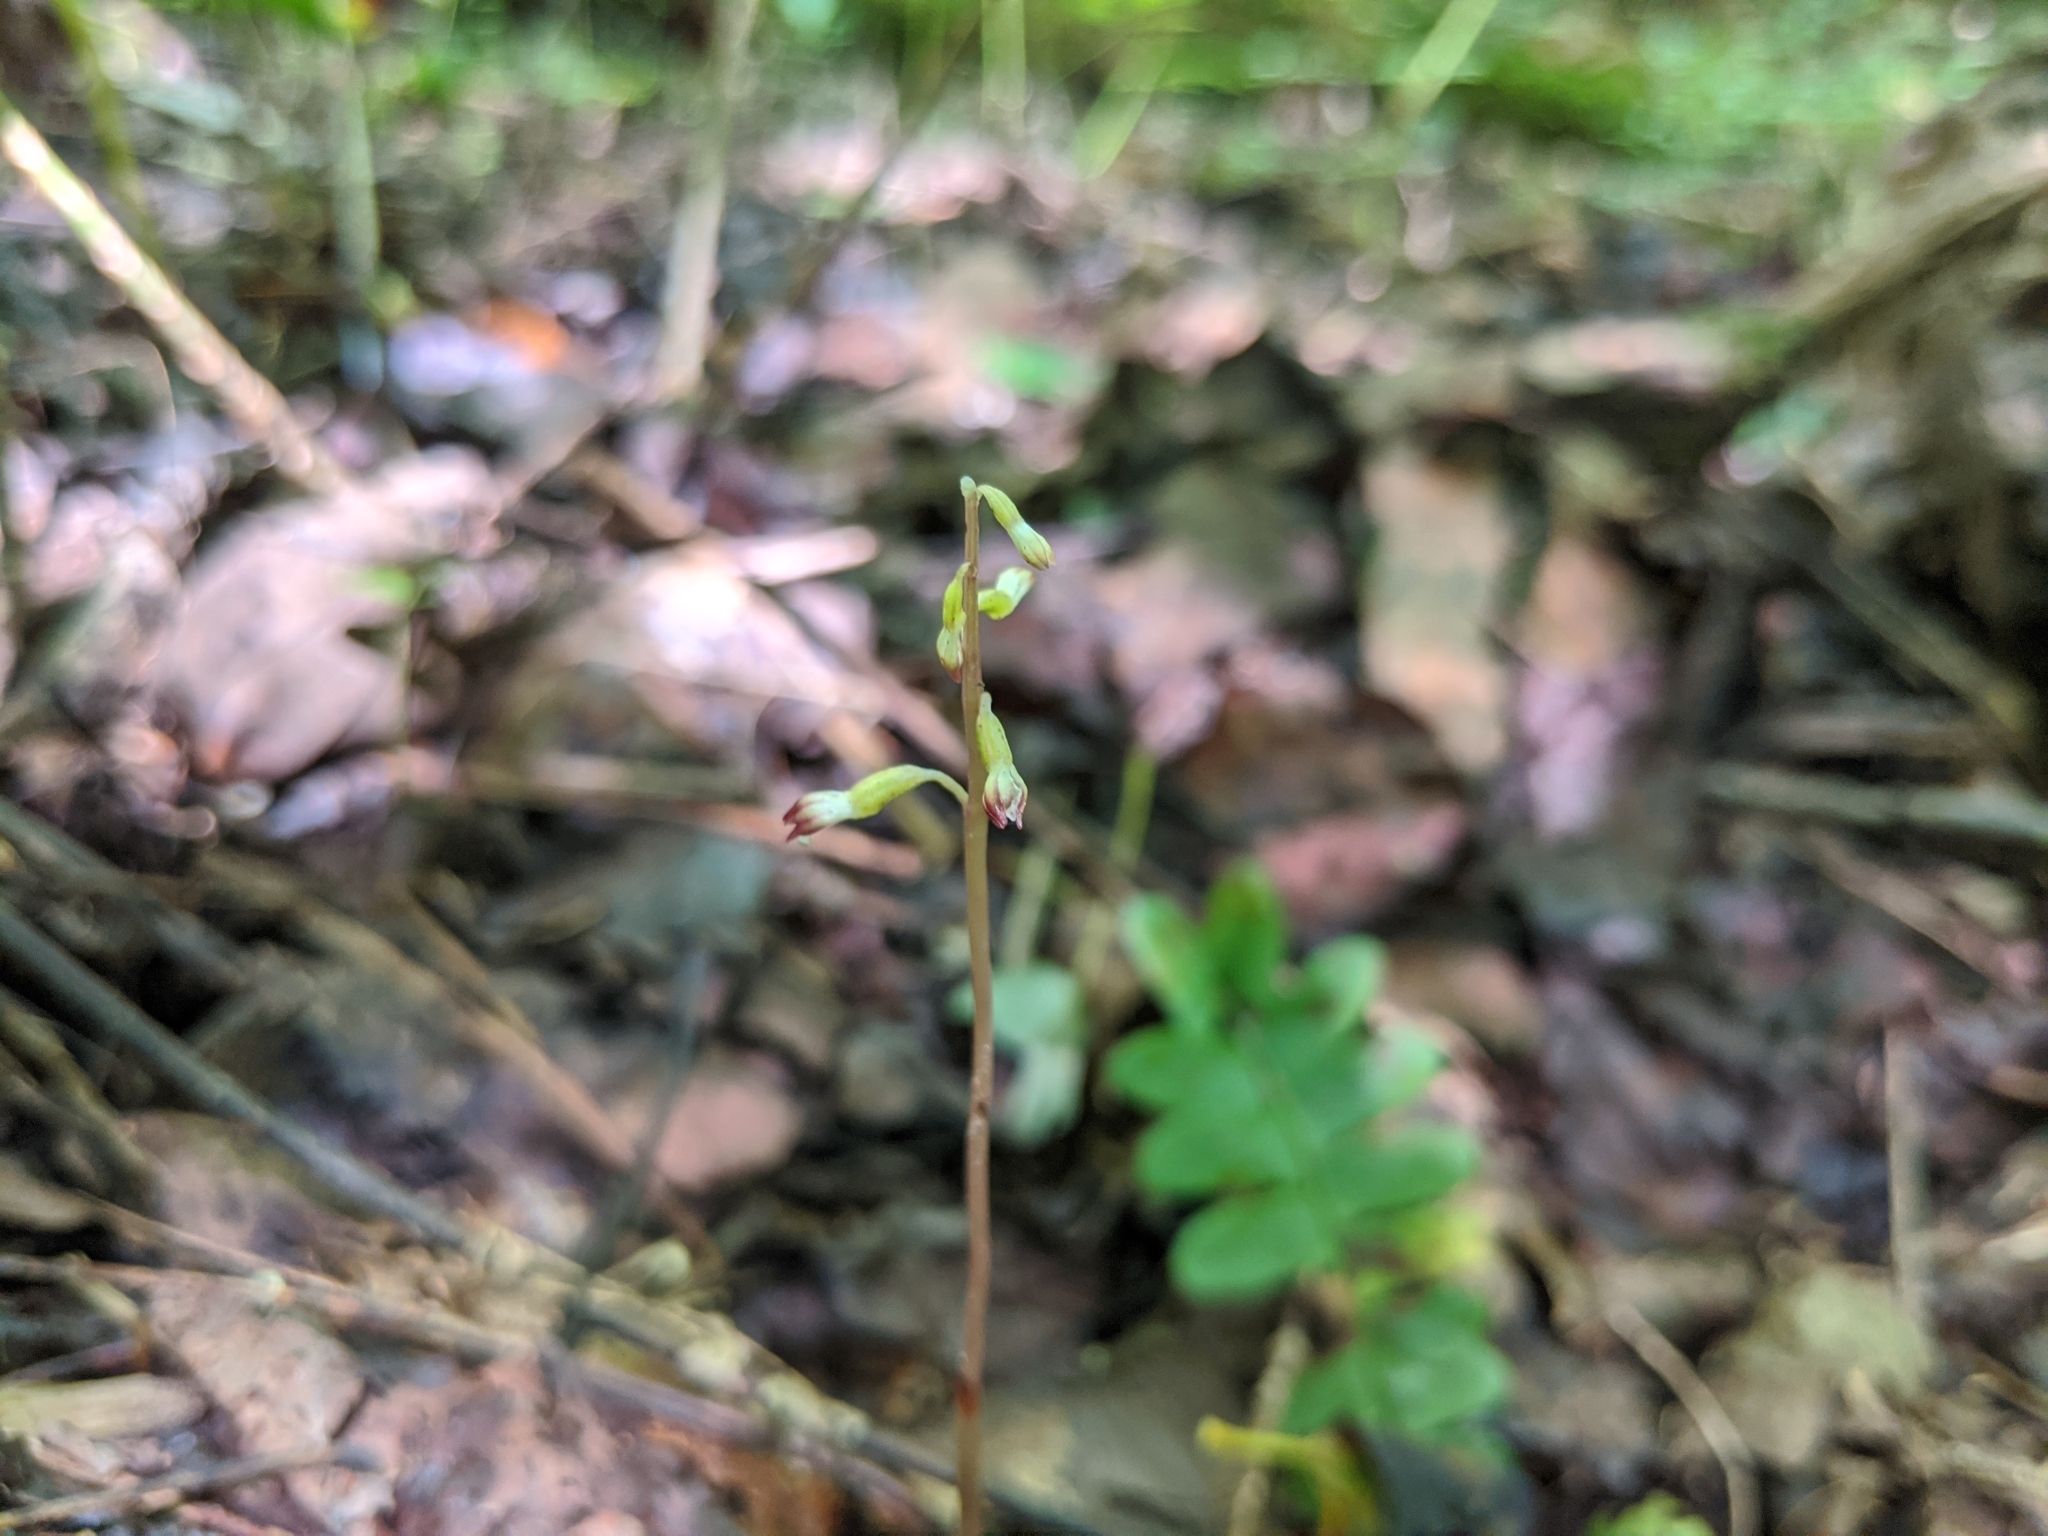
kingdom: Plantae
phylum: Tracheophyta
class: Liliopsida
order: Asparagales
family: Orchidaceae
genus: Corallorhiza
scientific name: Corallorhiza odontorhiza
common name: Autumn coralroot
